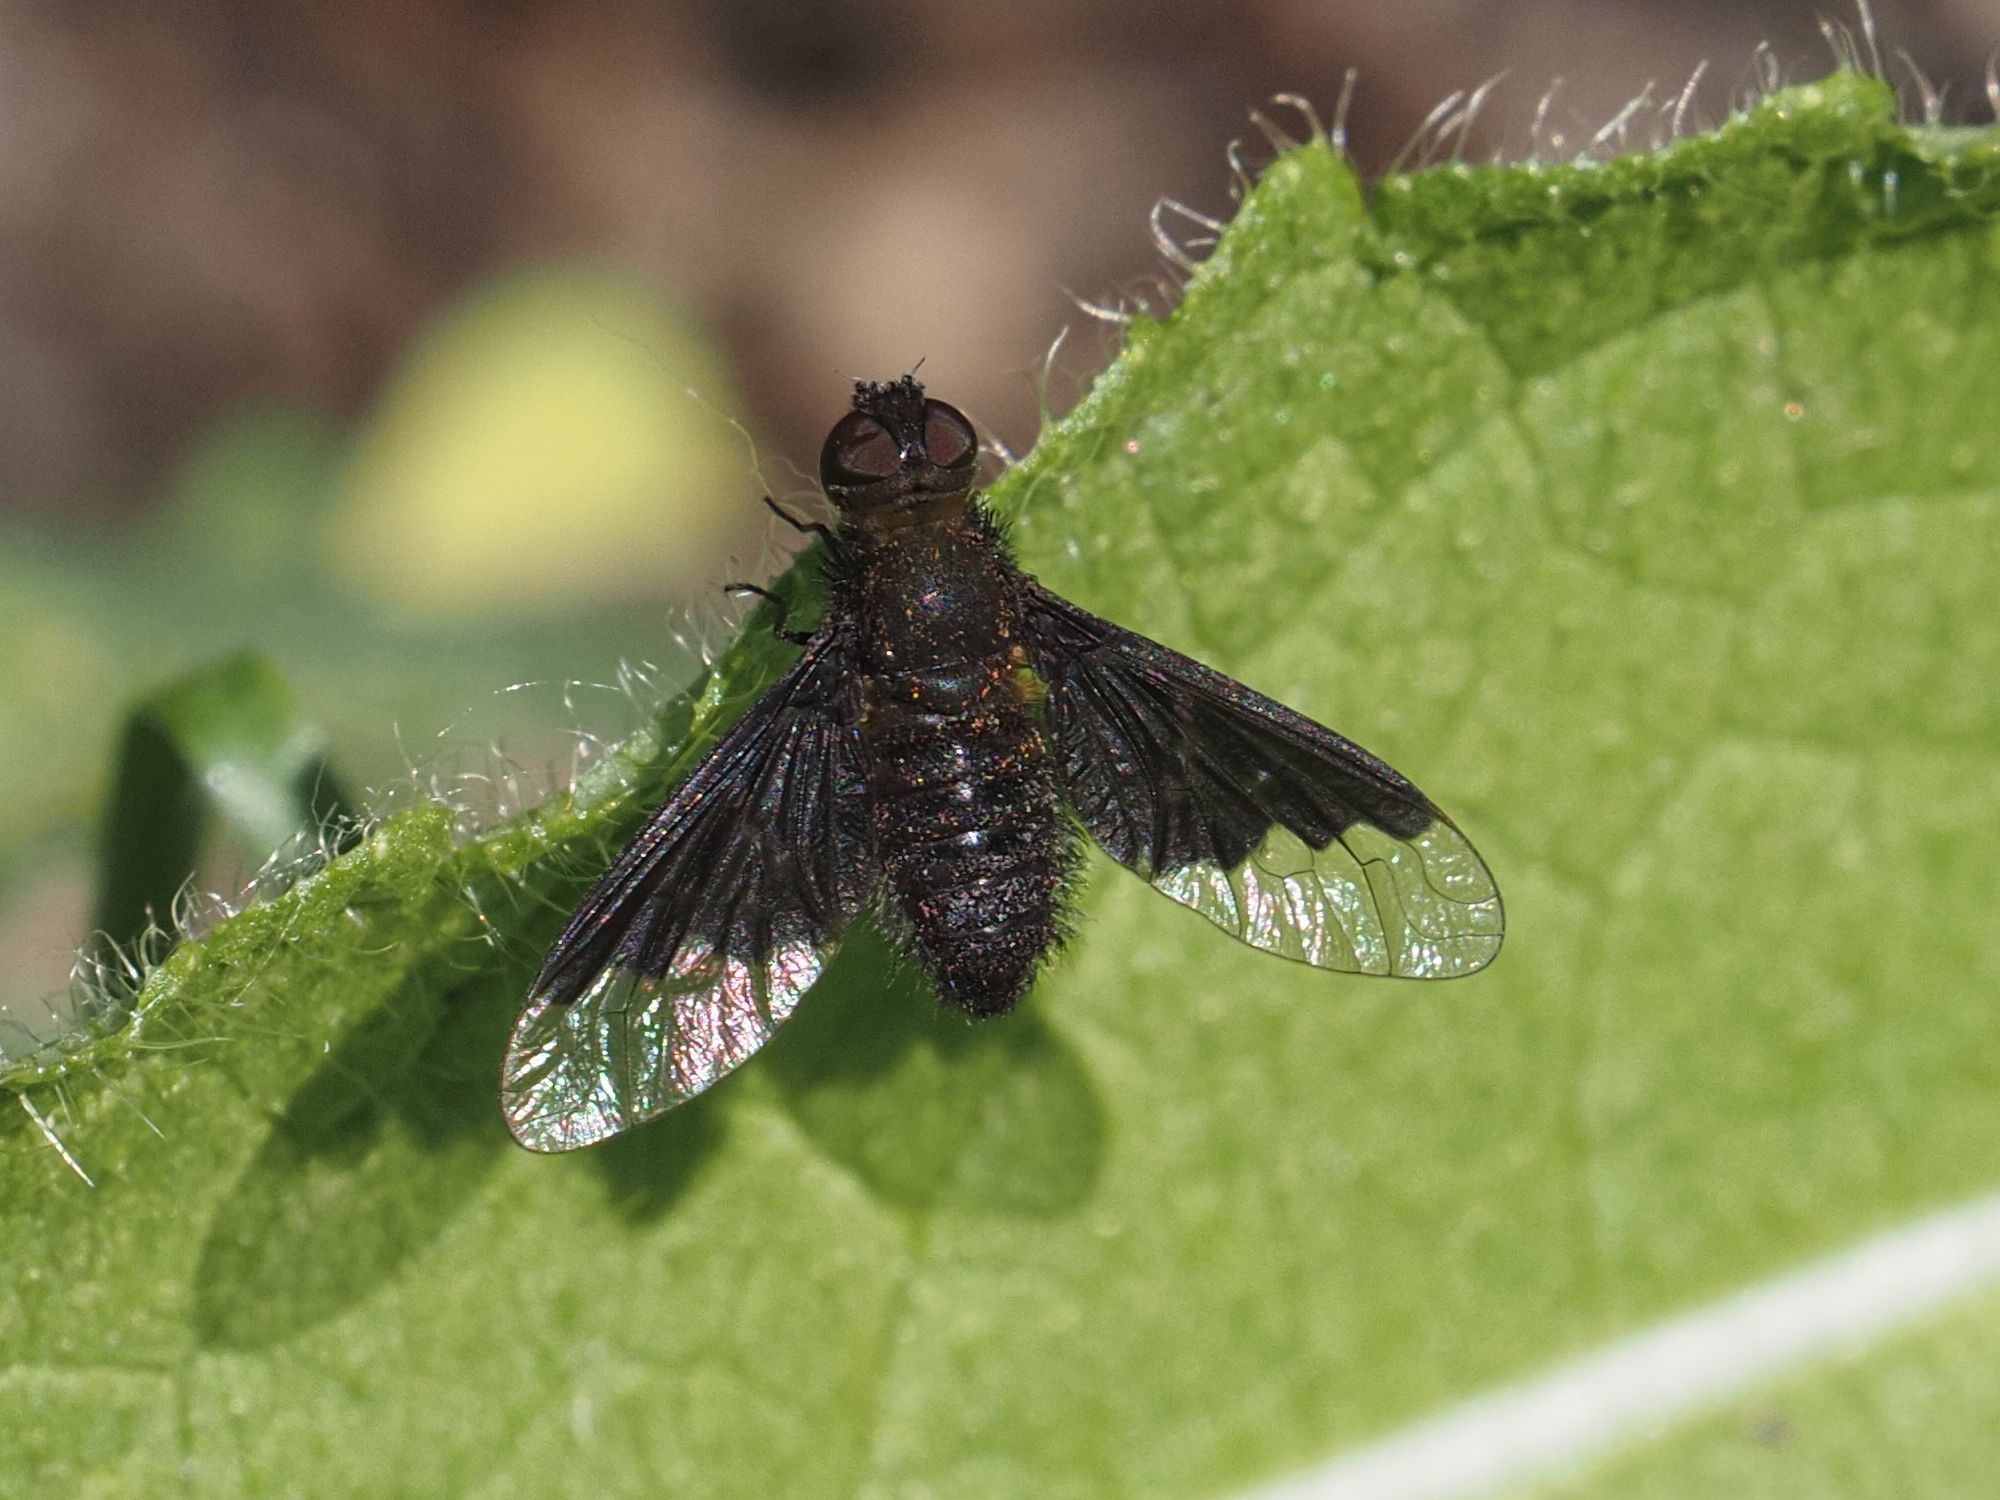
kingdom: Animalia
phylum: Arthropoda
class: Insecta
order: Diptera
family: Bombyliidae
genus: Hemipenthes
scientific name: Hemipenthes morio
